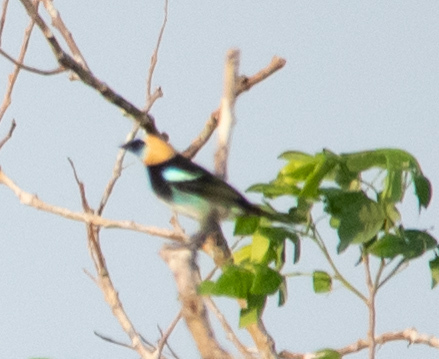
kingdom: Animalia
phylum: Chordata
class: Aves
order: Passeriformes
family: Thraupidae
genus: Stilpnia
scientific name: Stilpnia larvata
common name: Golden-hooded tanager
